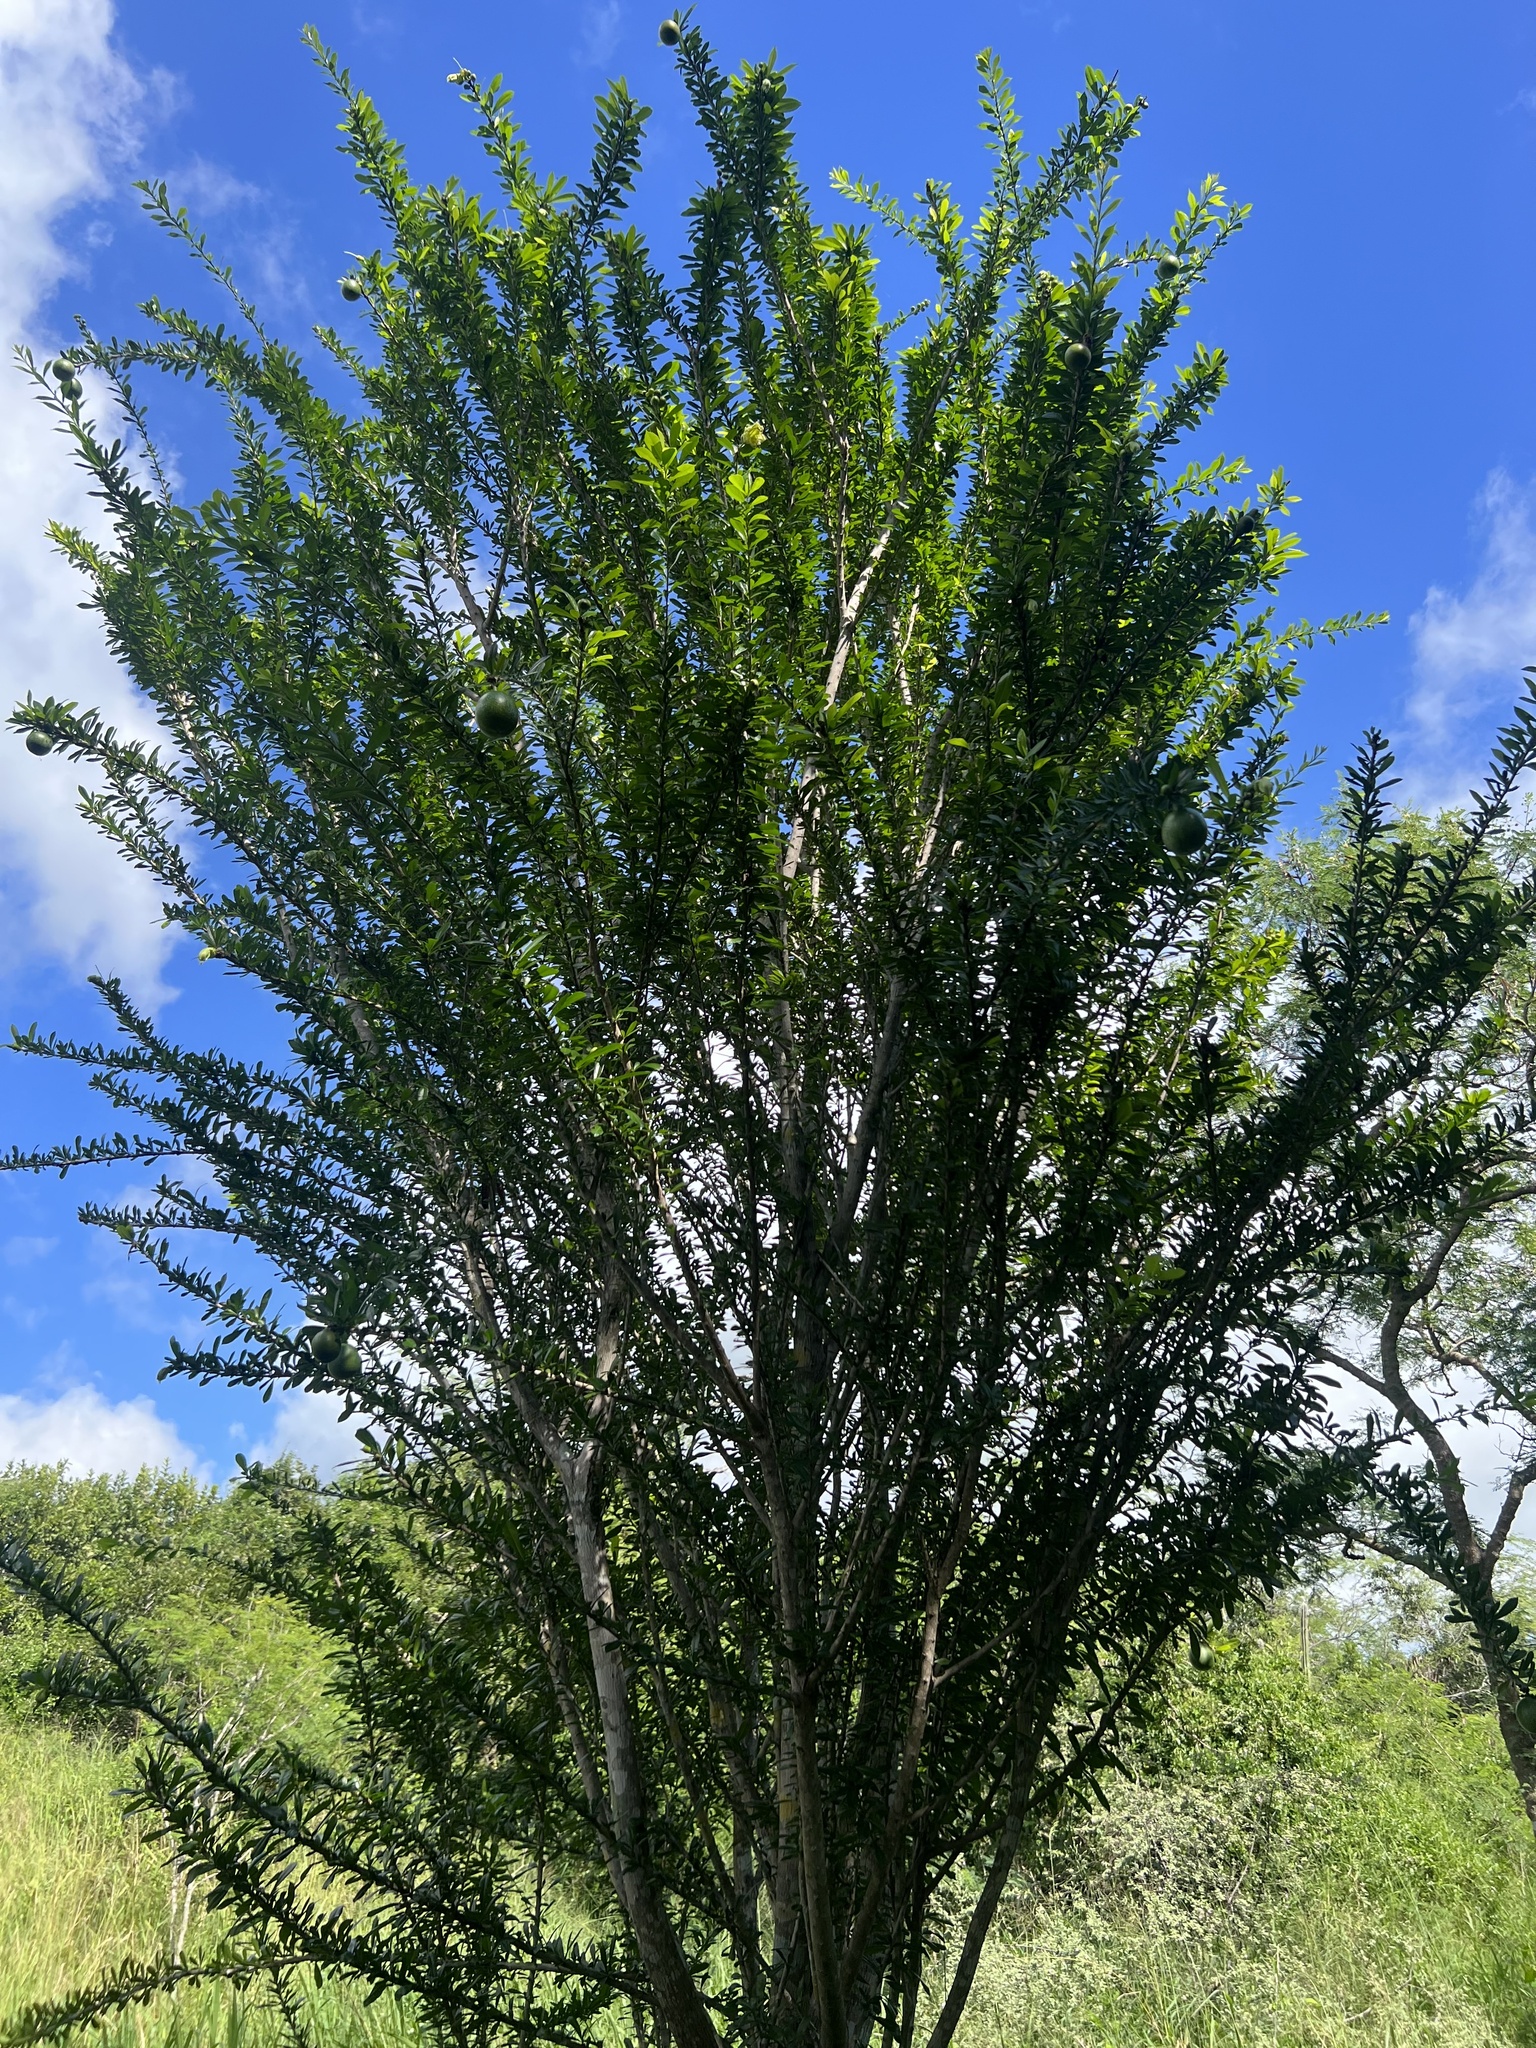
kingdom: Plantae
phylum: Tracheophyta
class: Magnoliopsida
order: Lamiales
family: Bignoniaceae
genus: Crescentia
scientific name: Crescentia linearifolia
